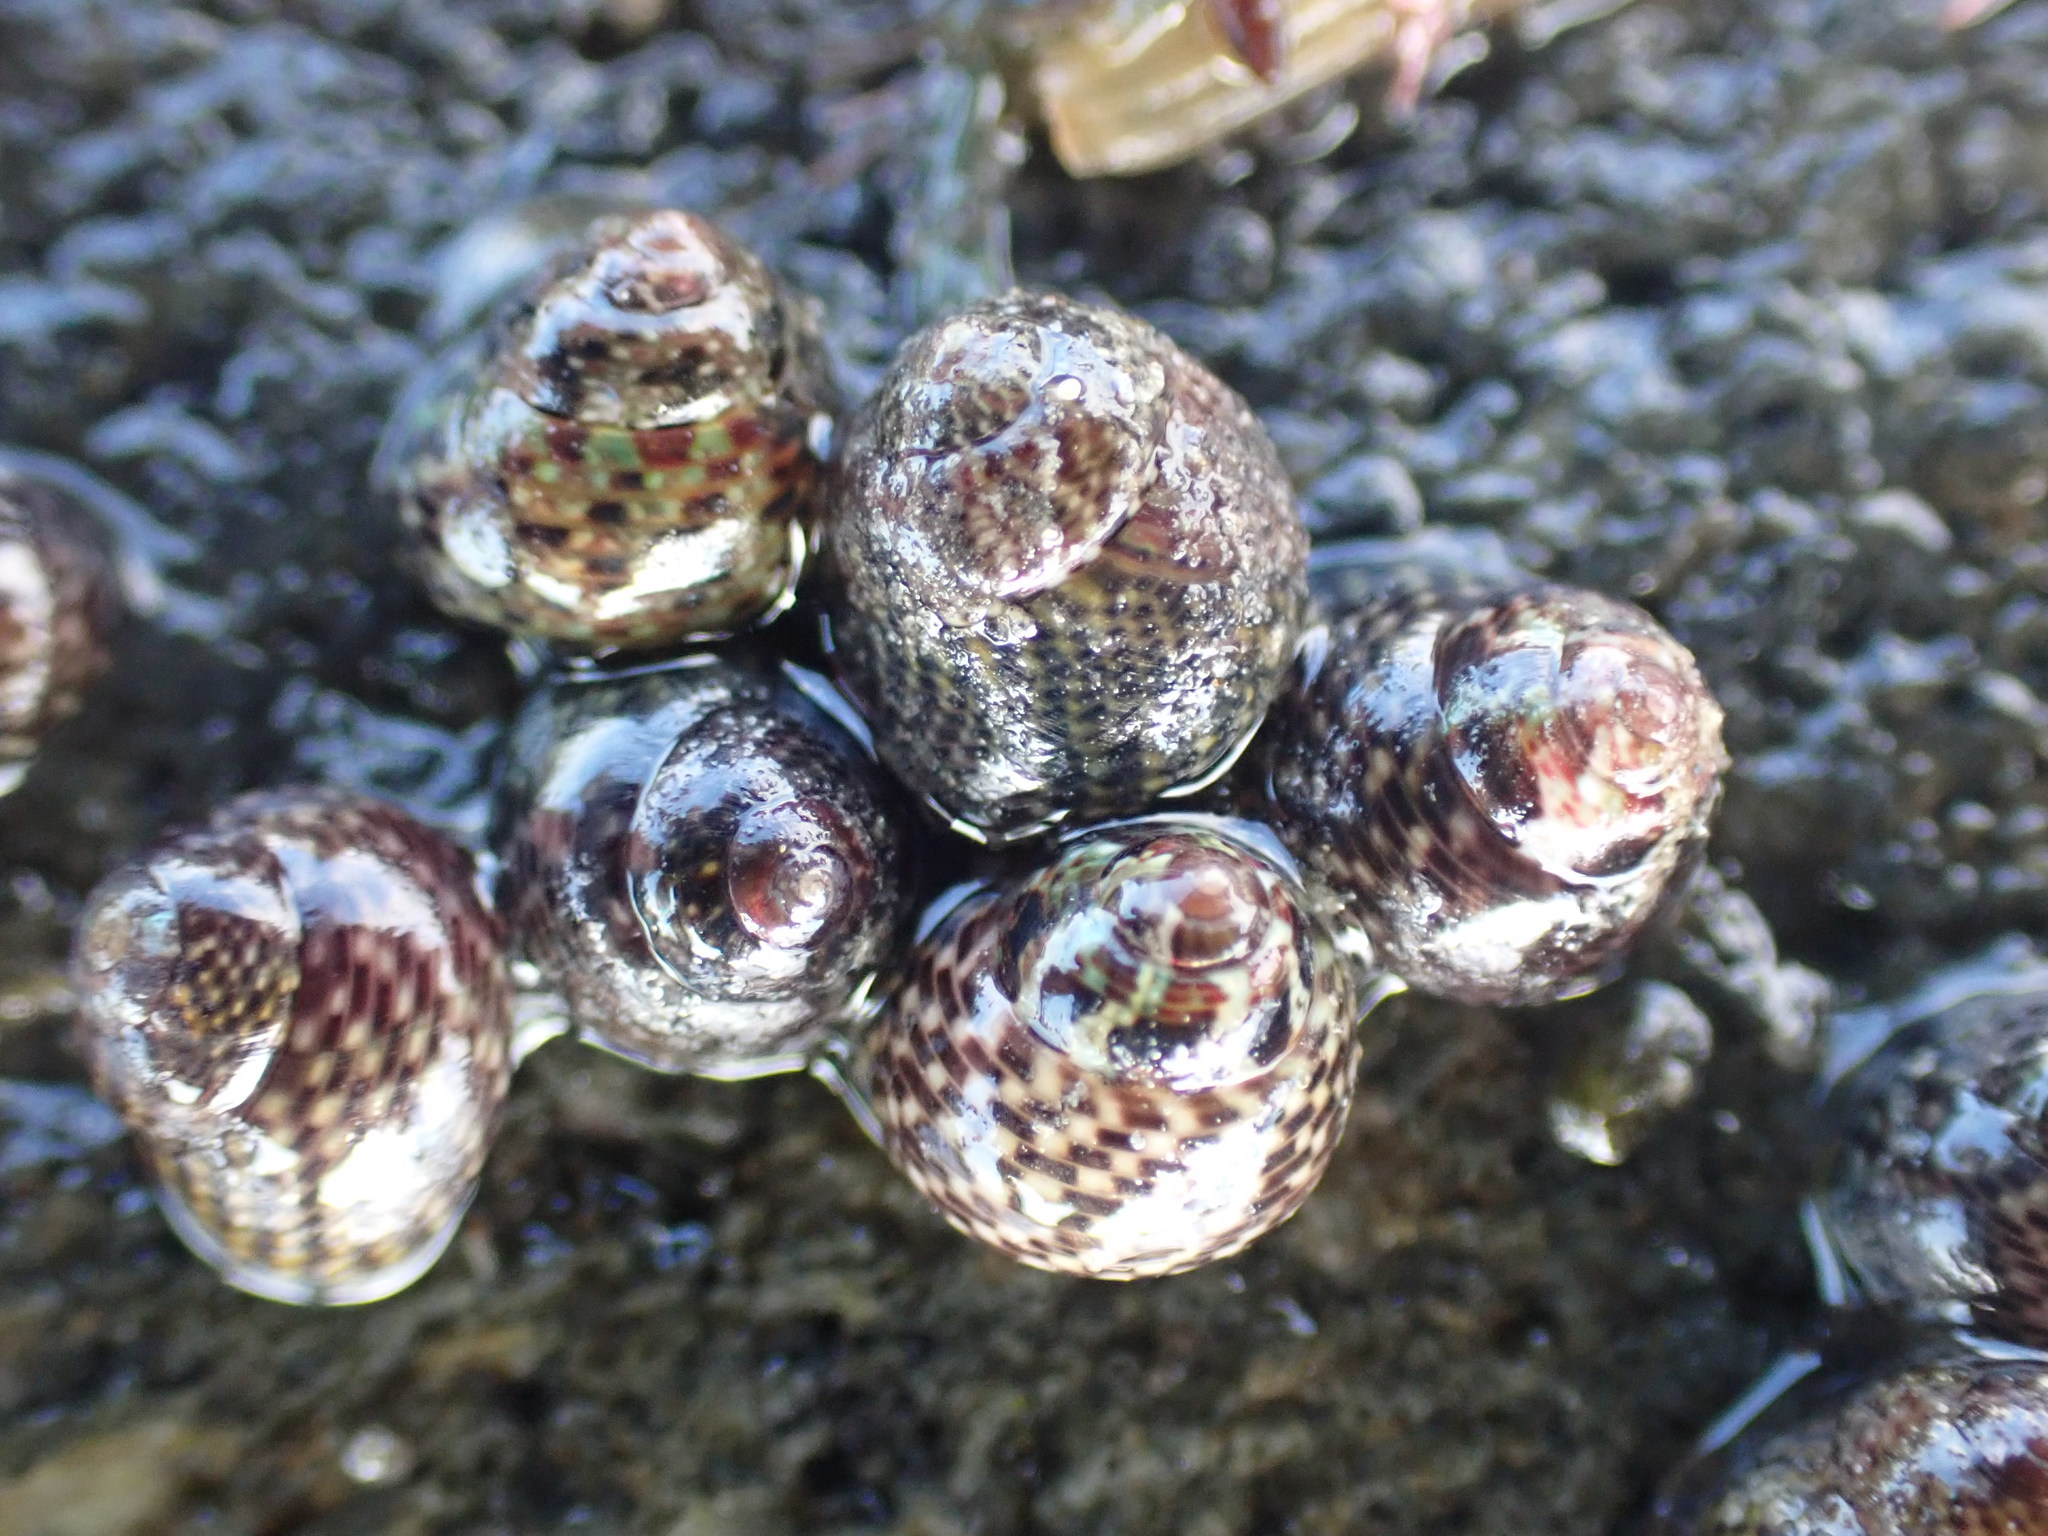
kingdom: Animalia
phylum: Mollusca
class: Gastropoda
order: Trochida
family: Trochidae
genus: Micrelenchus
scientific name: Micrelenchus tessellatus
